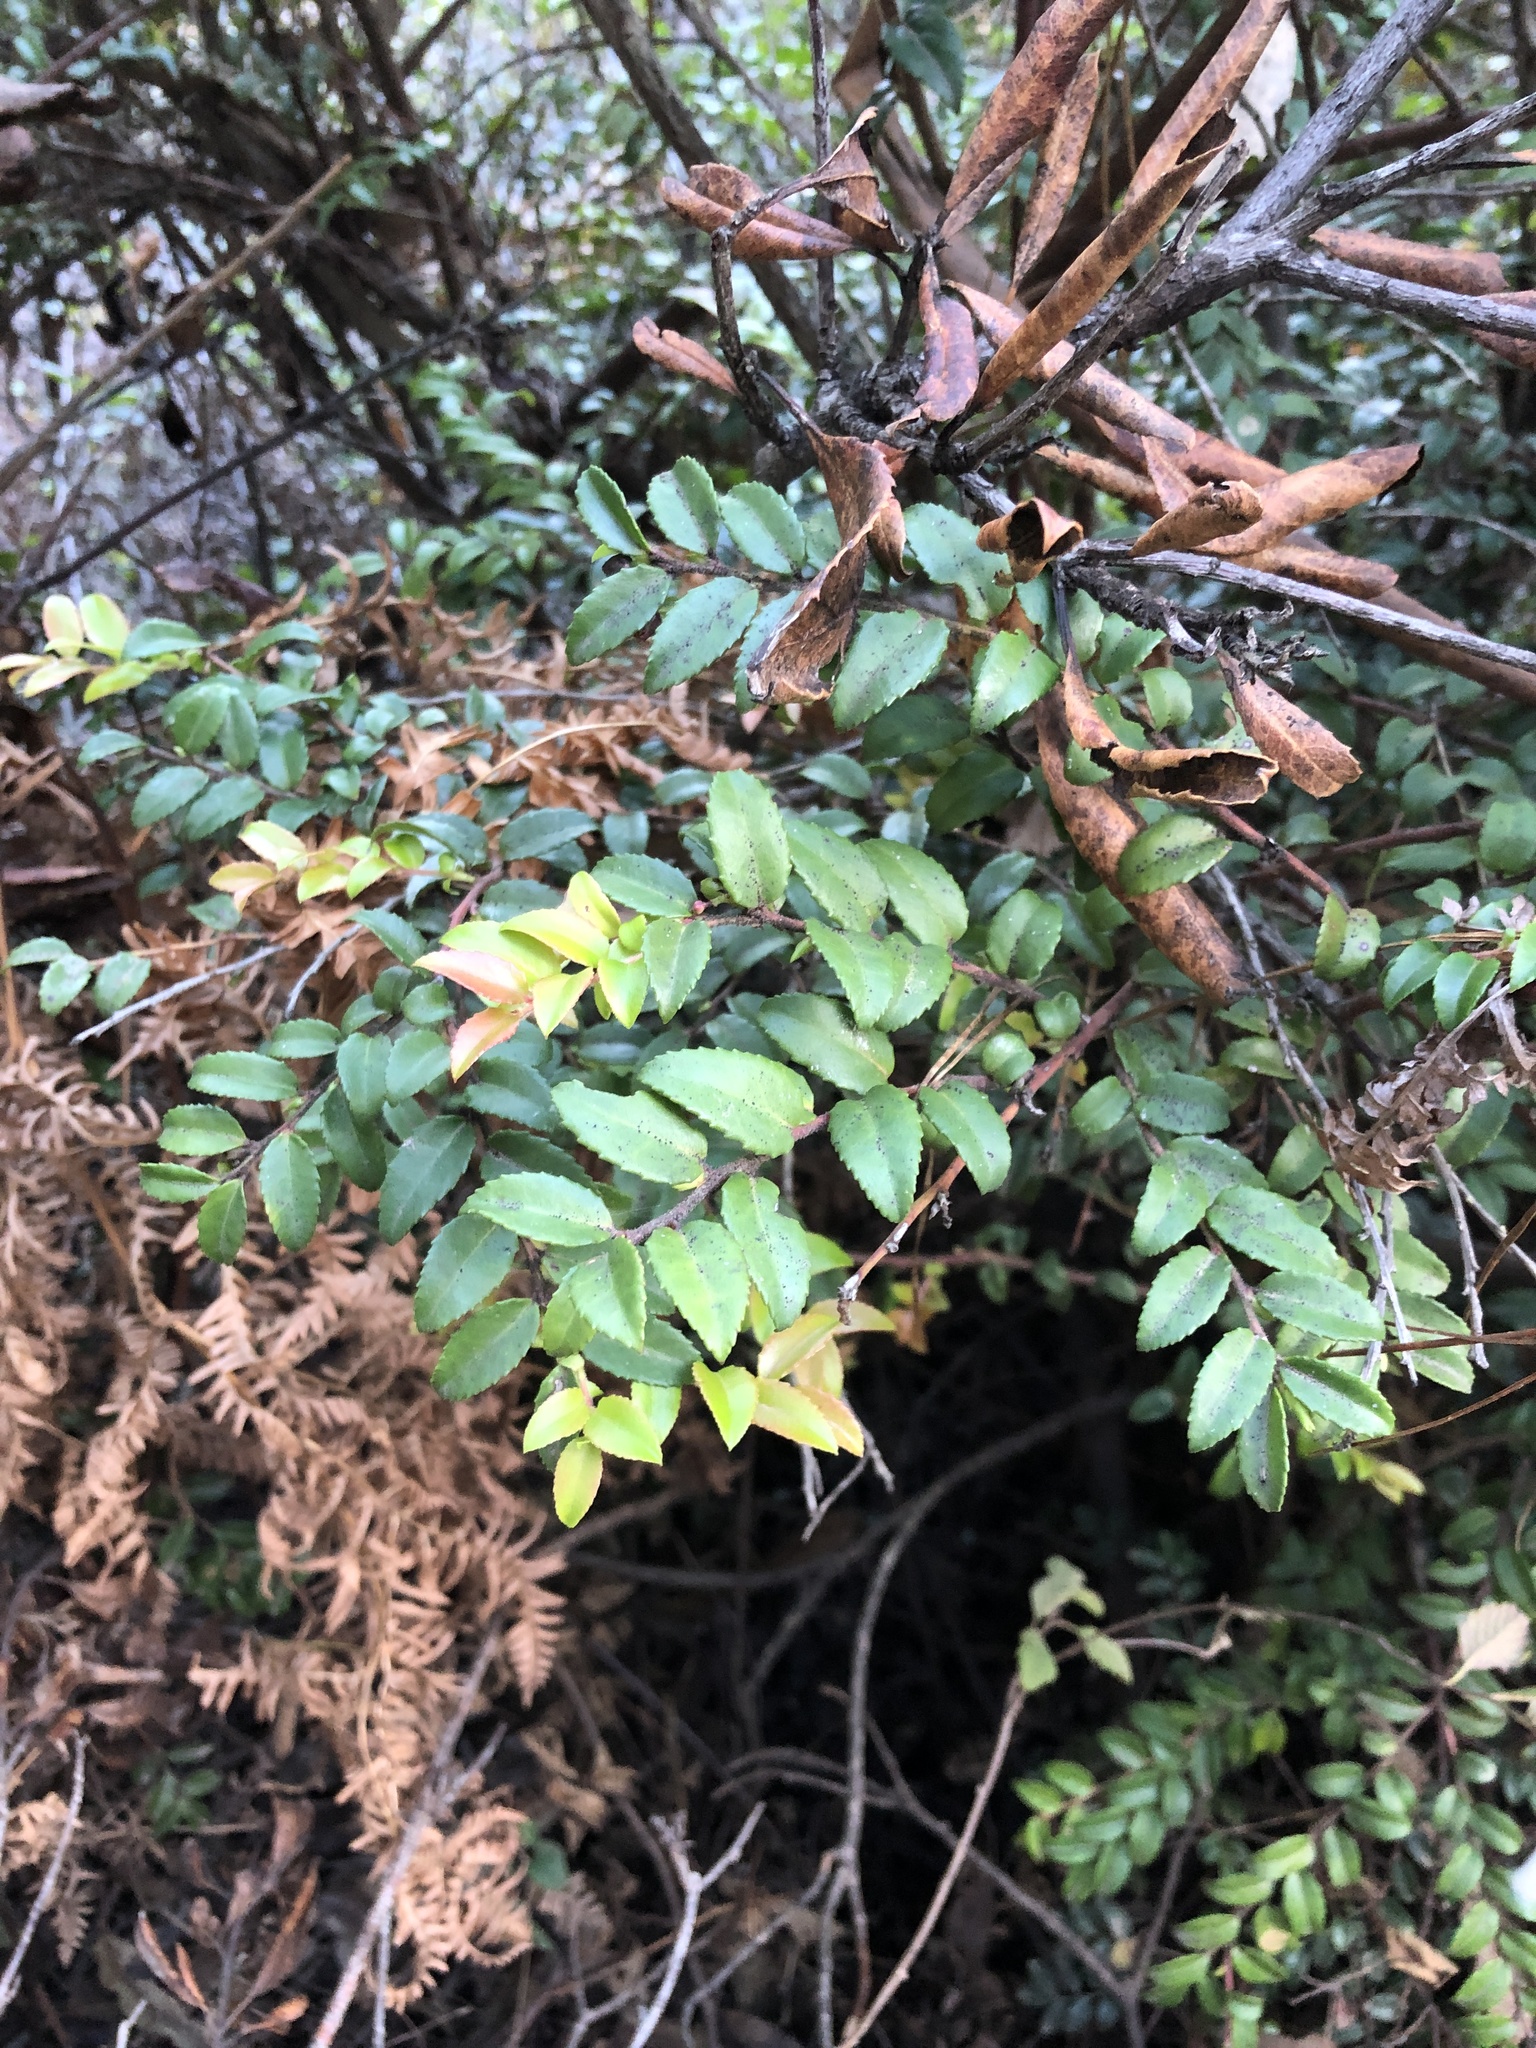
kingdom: Plantae
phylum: Tracheophyta
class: Magnoliopsida
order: Ericales
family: Ericaceae
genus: Vaccinium
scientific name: Vaccinium ovatum
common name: California-huckleberry
